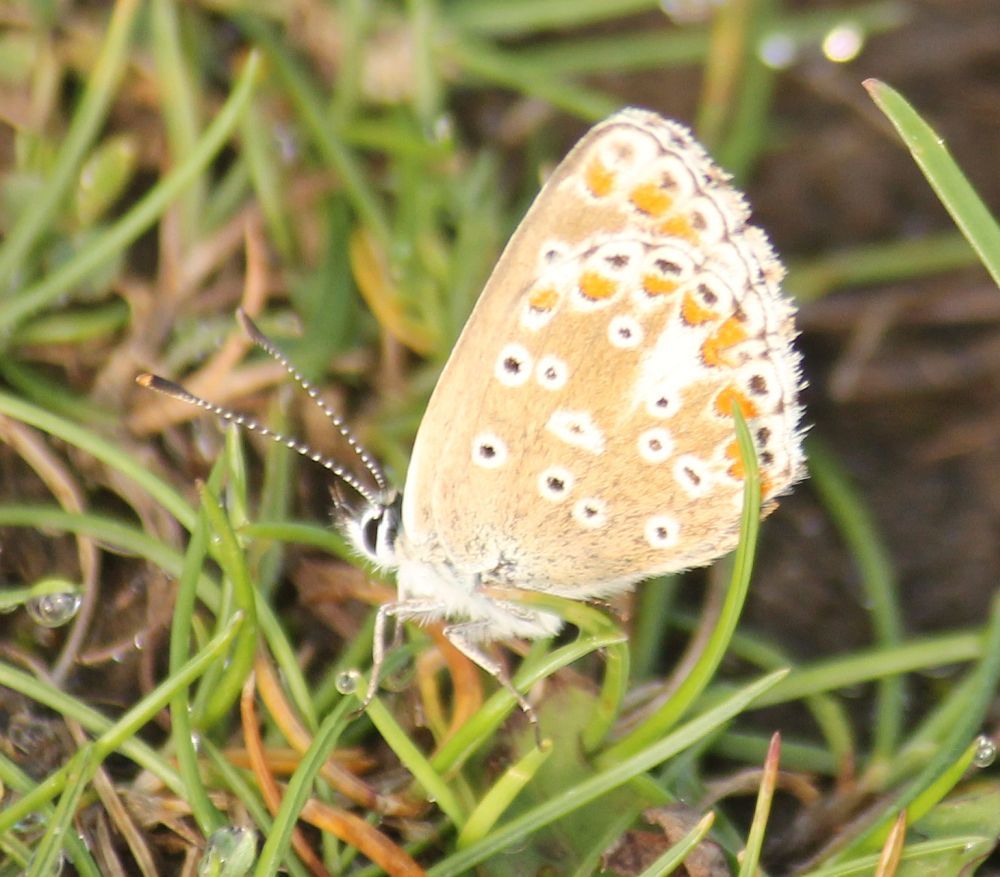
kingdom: Animalia
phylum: Arthropoda
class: Insecta
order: Lepidoptera
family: Lycaenidae
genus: Aricia
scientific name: Aricia agestis
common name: Brown argus
